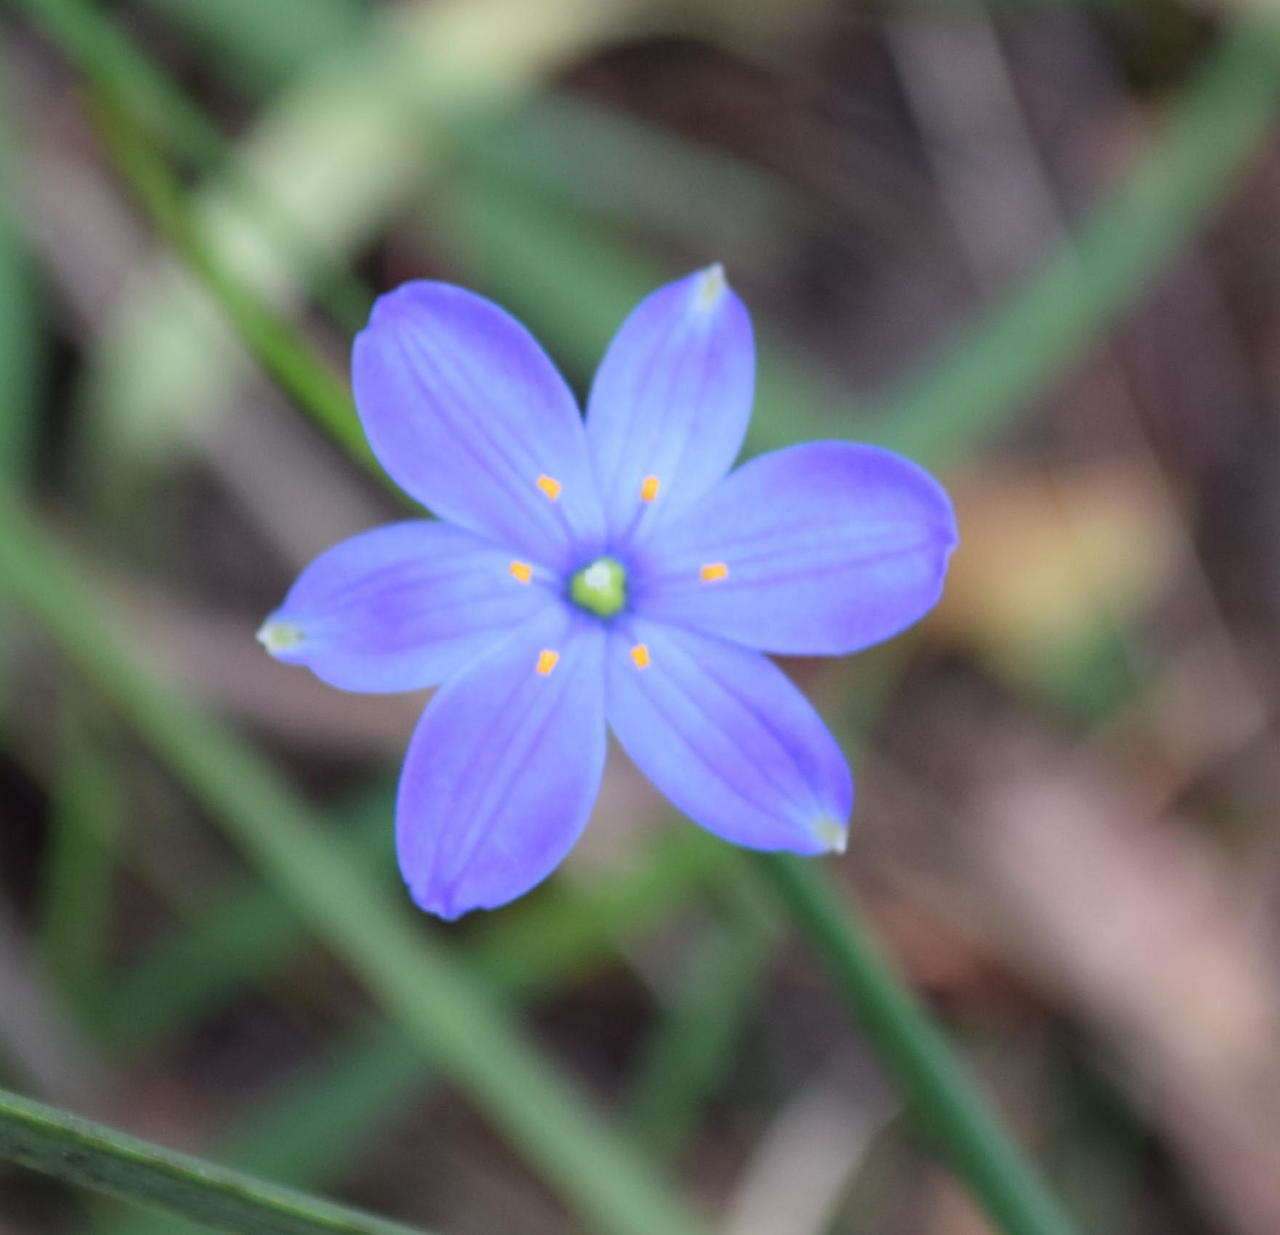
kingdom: Plantae
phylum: Tracheophyta
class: Liliopsida
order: Asparagales
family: Asphodelaceae
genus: Chamaescilla
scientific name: Chamaescilla corymbosa
